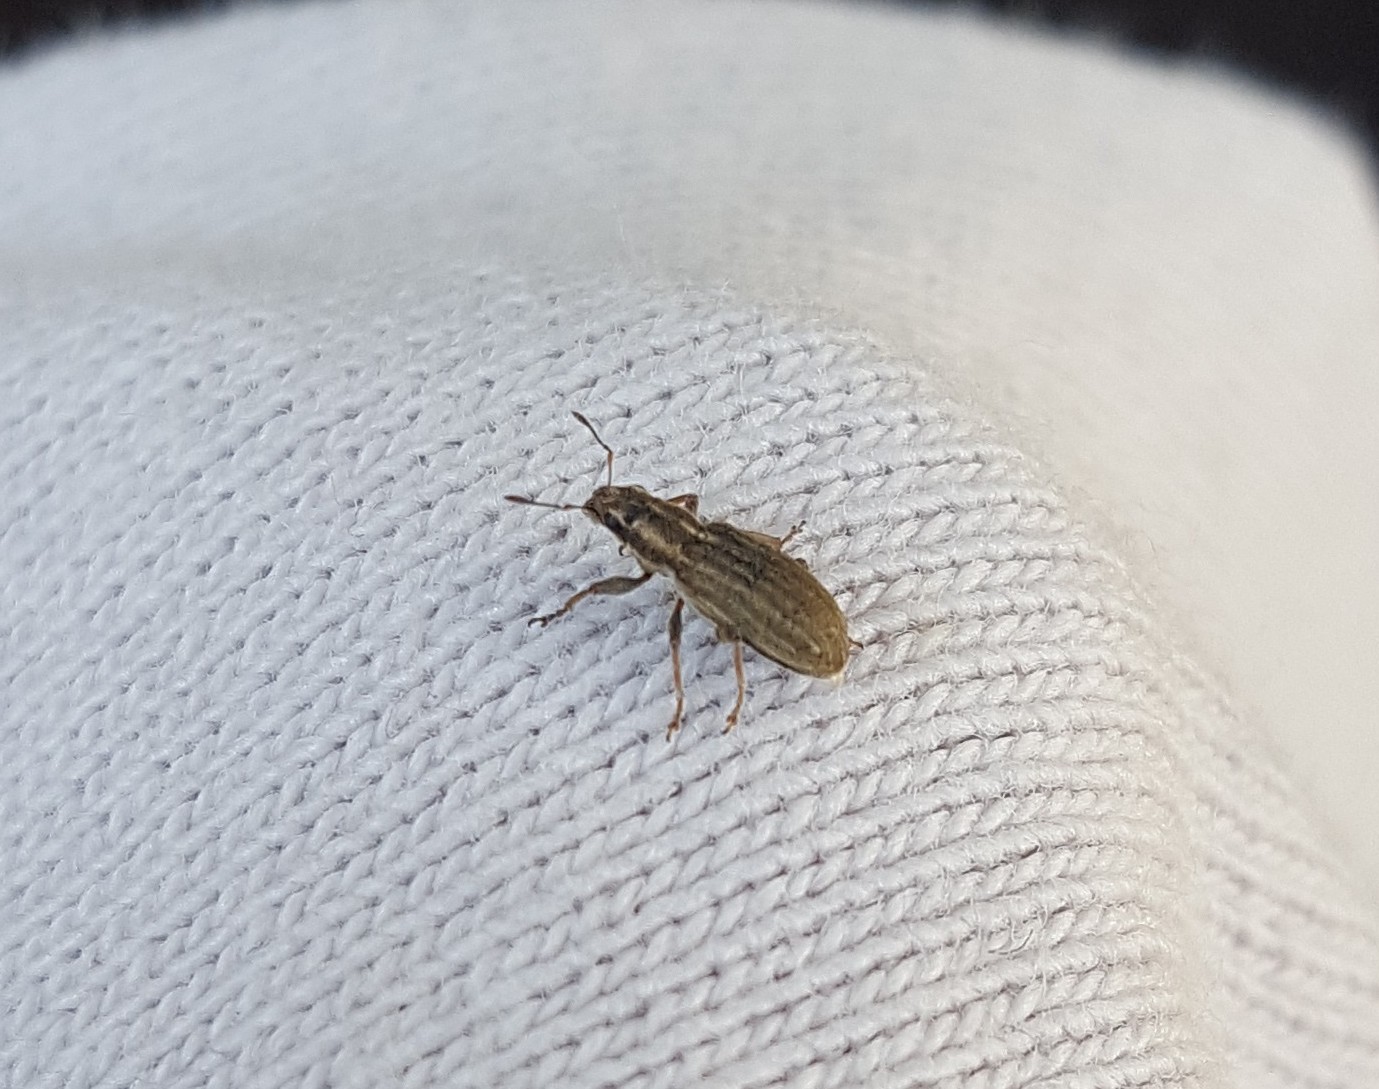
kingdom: Animalia
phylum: Arthropoda
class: Insecta
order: Coleoptera
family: Curculionidae
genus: Sitona
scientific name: Sitona lineatus
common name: Weevil
